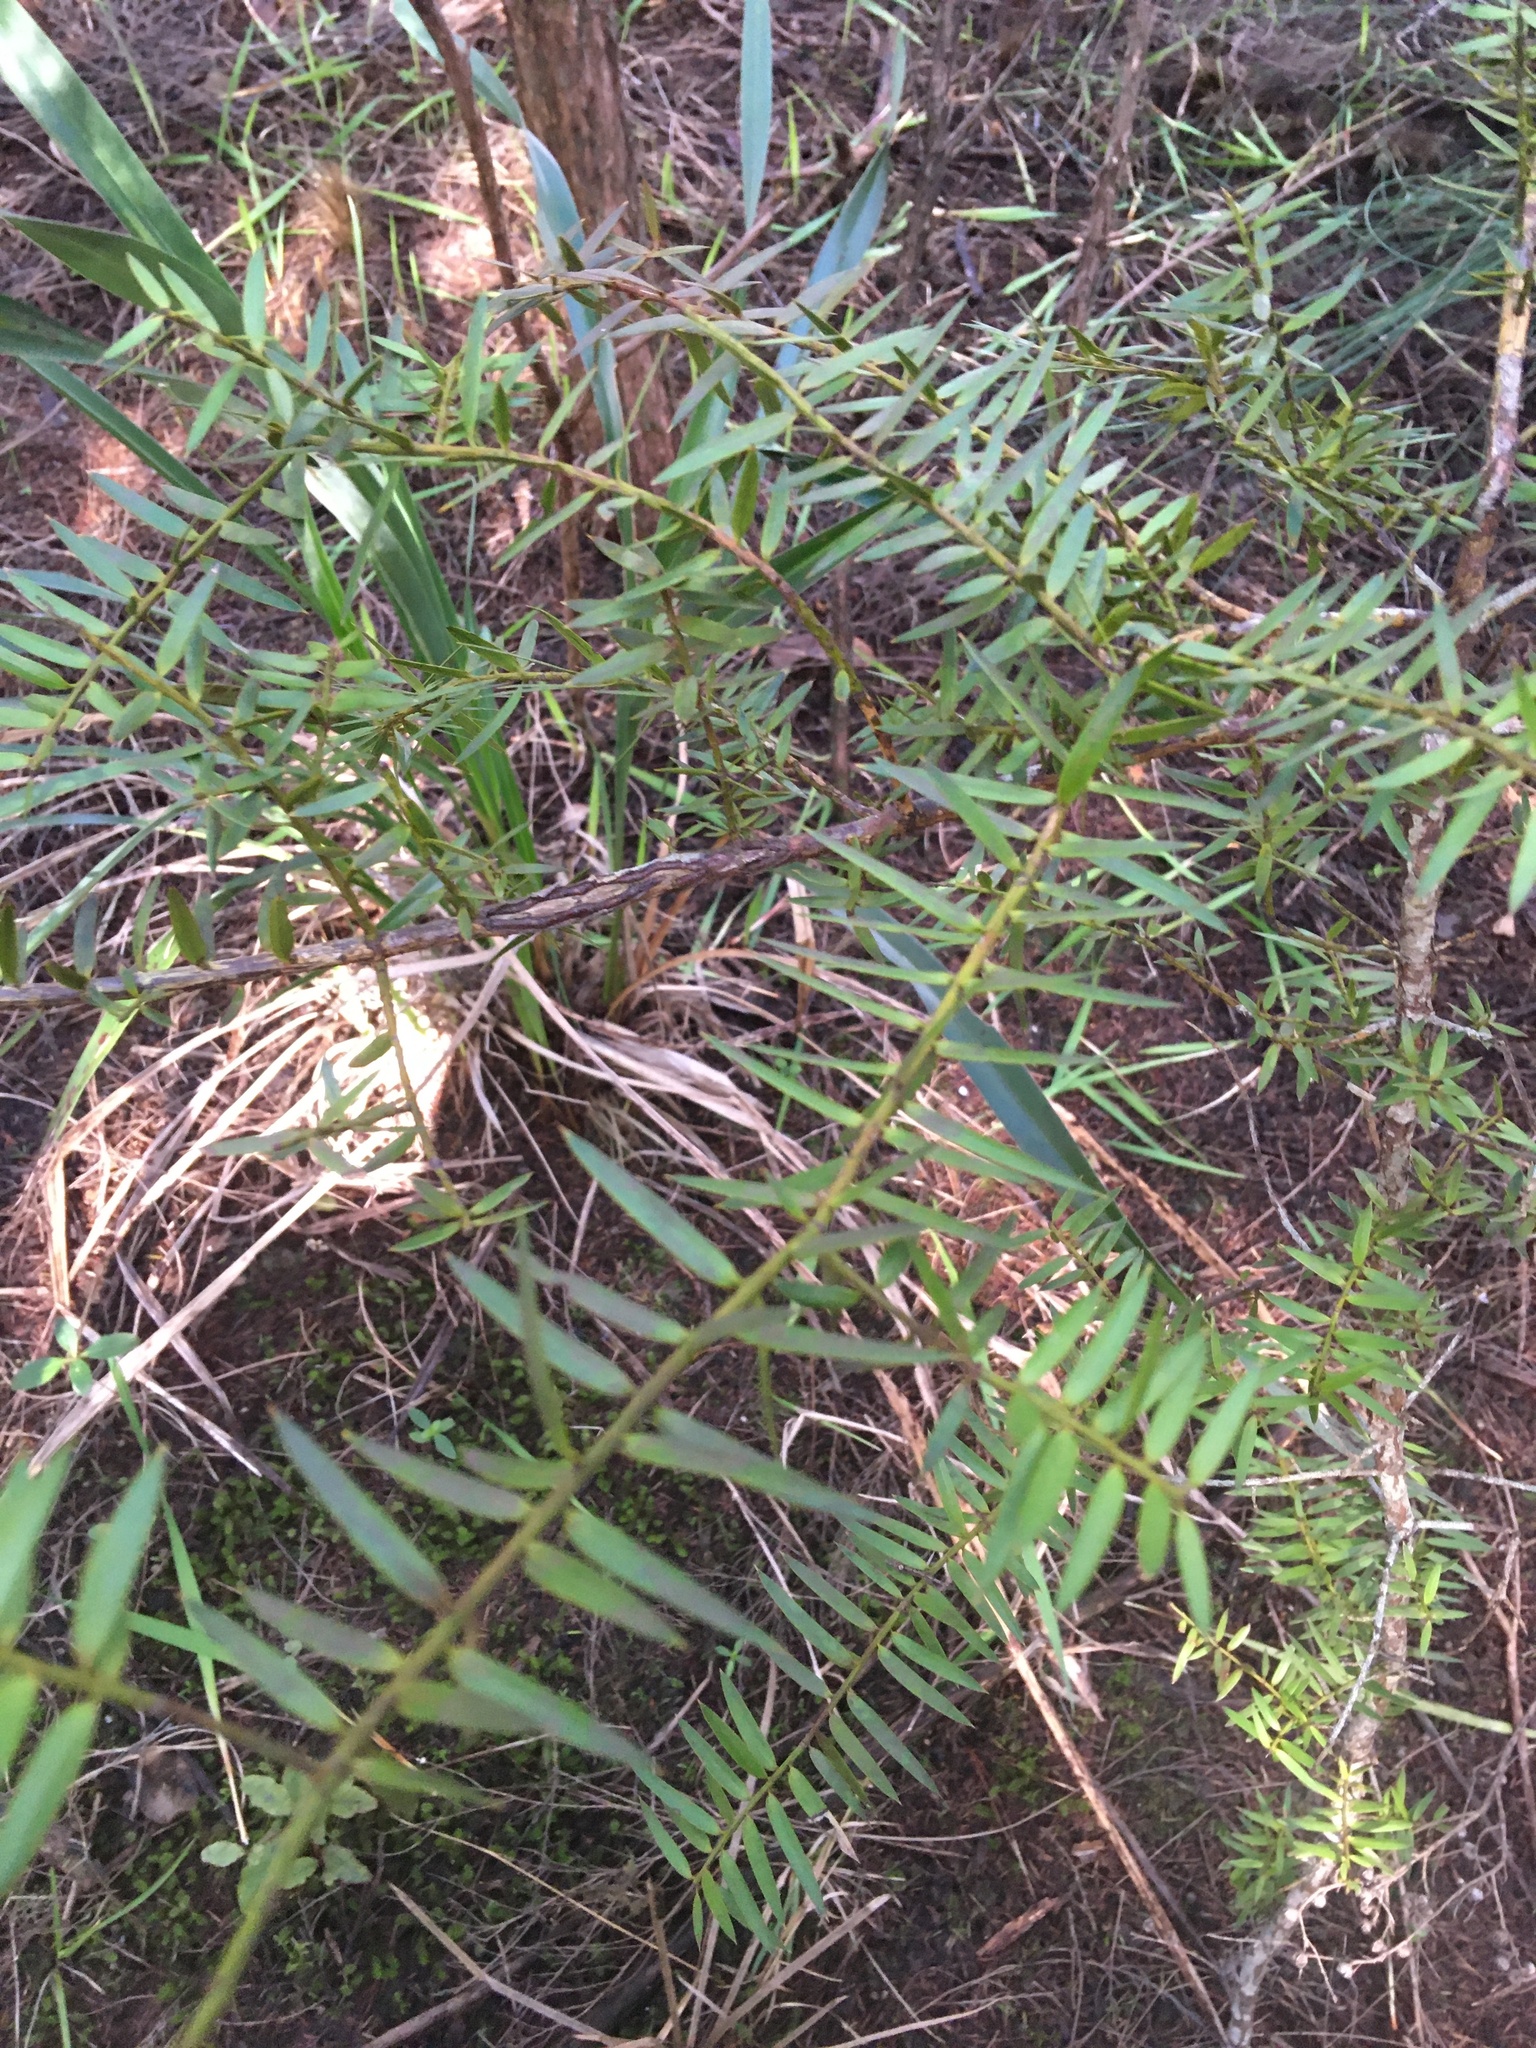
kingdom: Plantae
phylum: Tracheophyta
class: Pinopsida
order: Pinales
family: Podocarpaceae
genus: Podocarpus
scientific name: Podocarpus totara
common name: Totara
